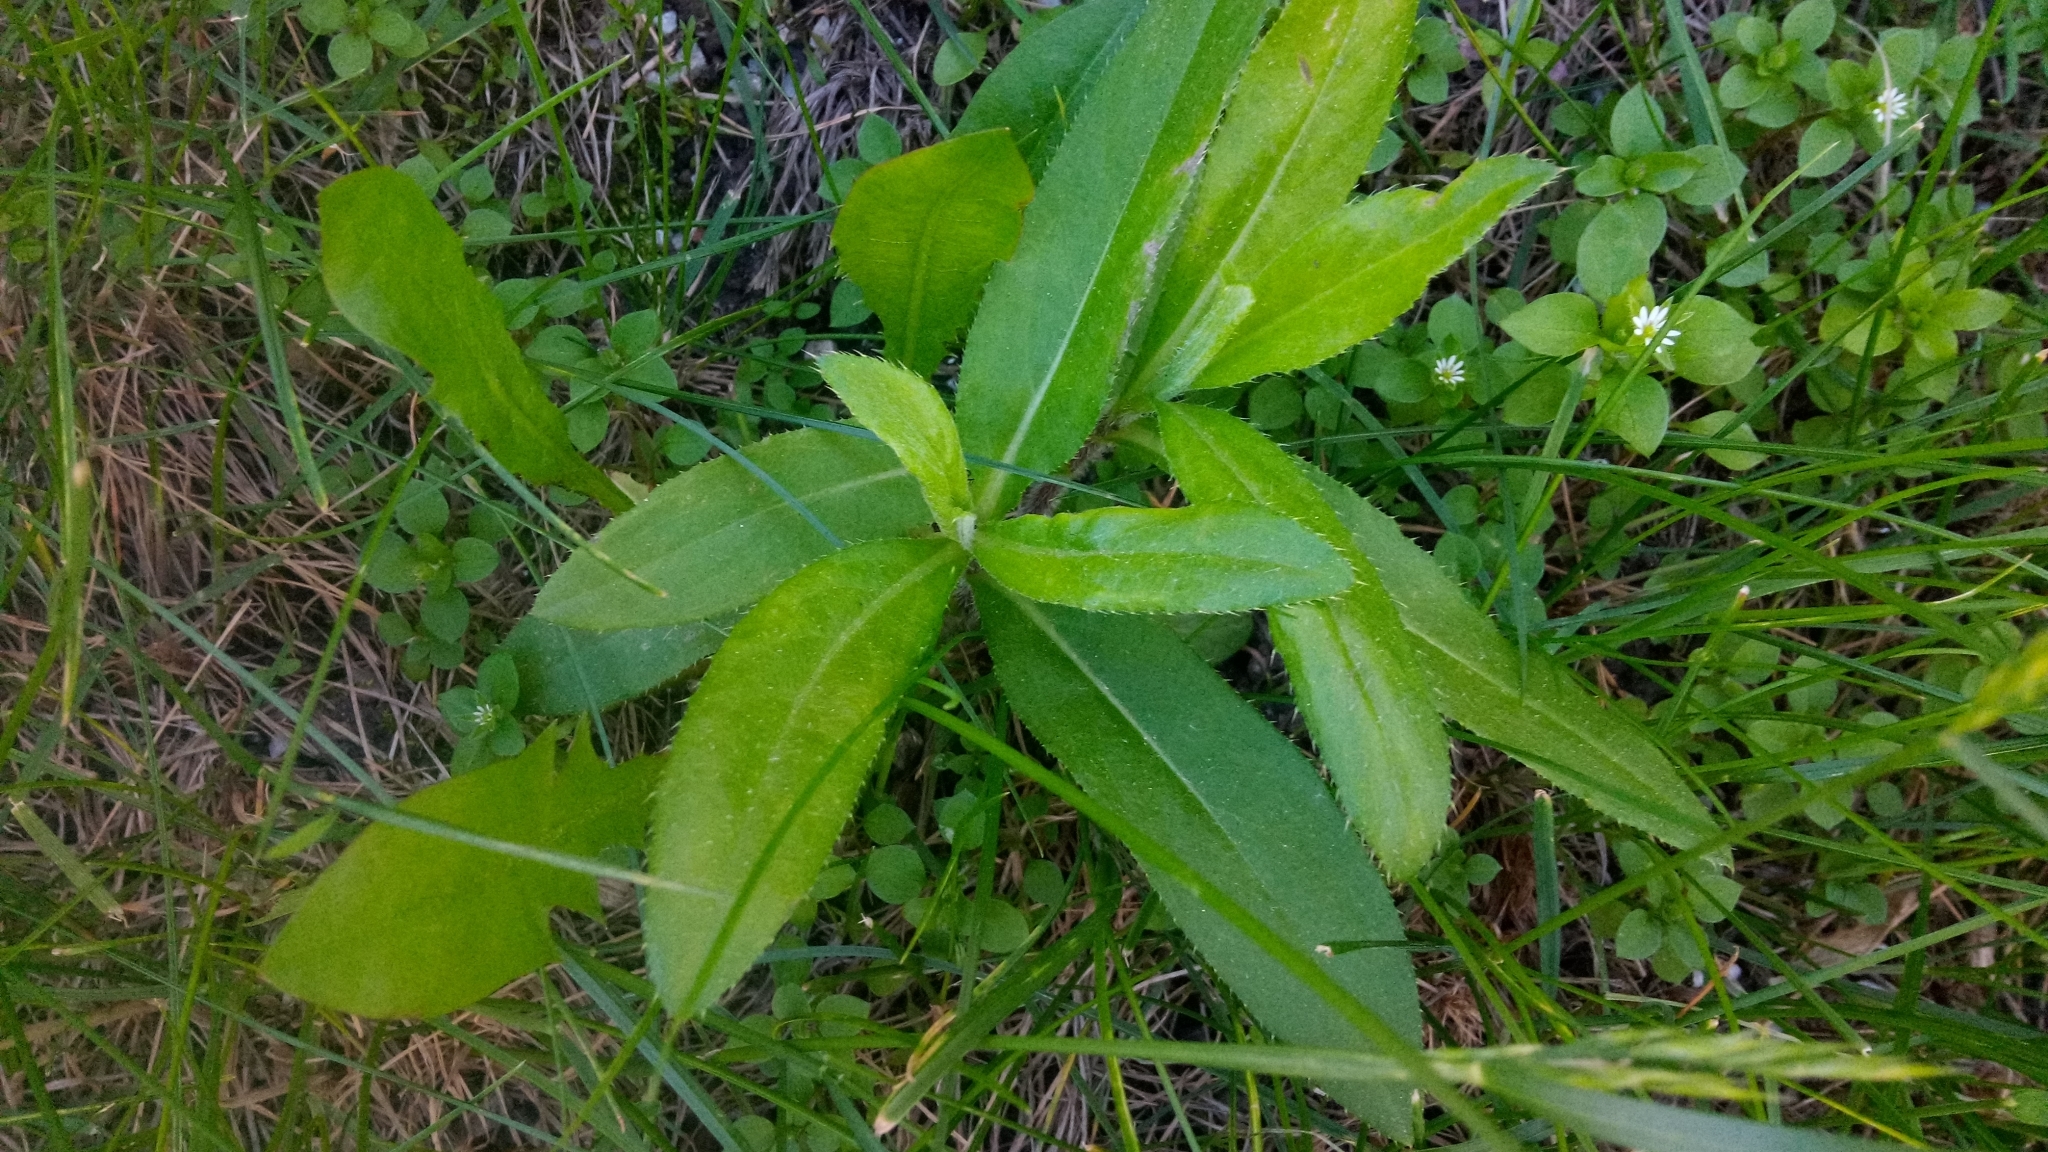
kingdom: Plantae
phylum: Tracheophyta
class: Magnoliopsida
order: Asterales
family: Asteraceae
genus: Cirsium
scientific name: Cirsium arvense
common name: Creeping thistle
